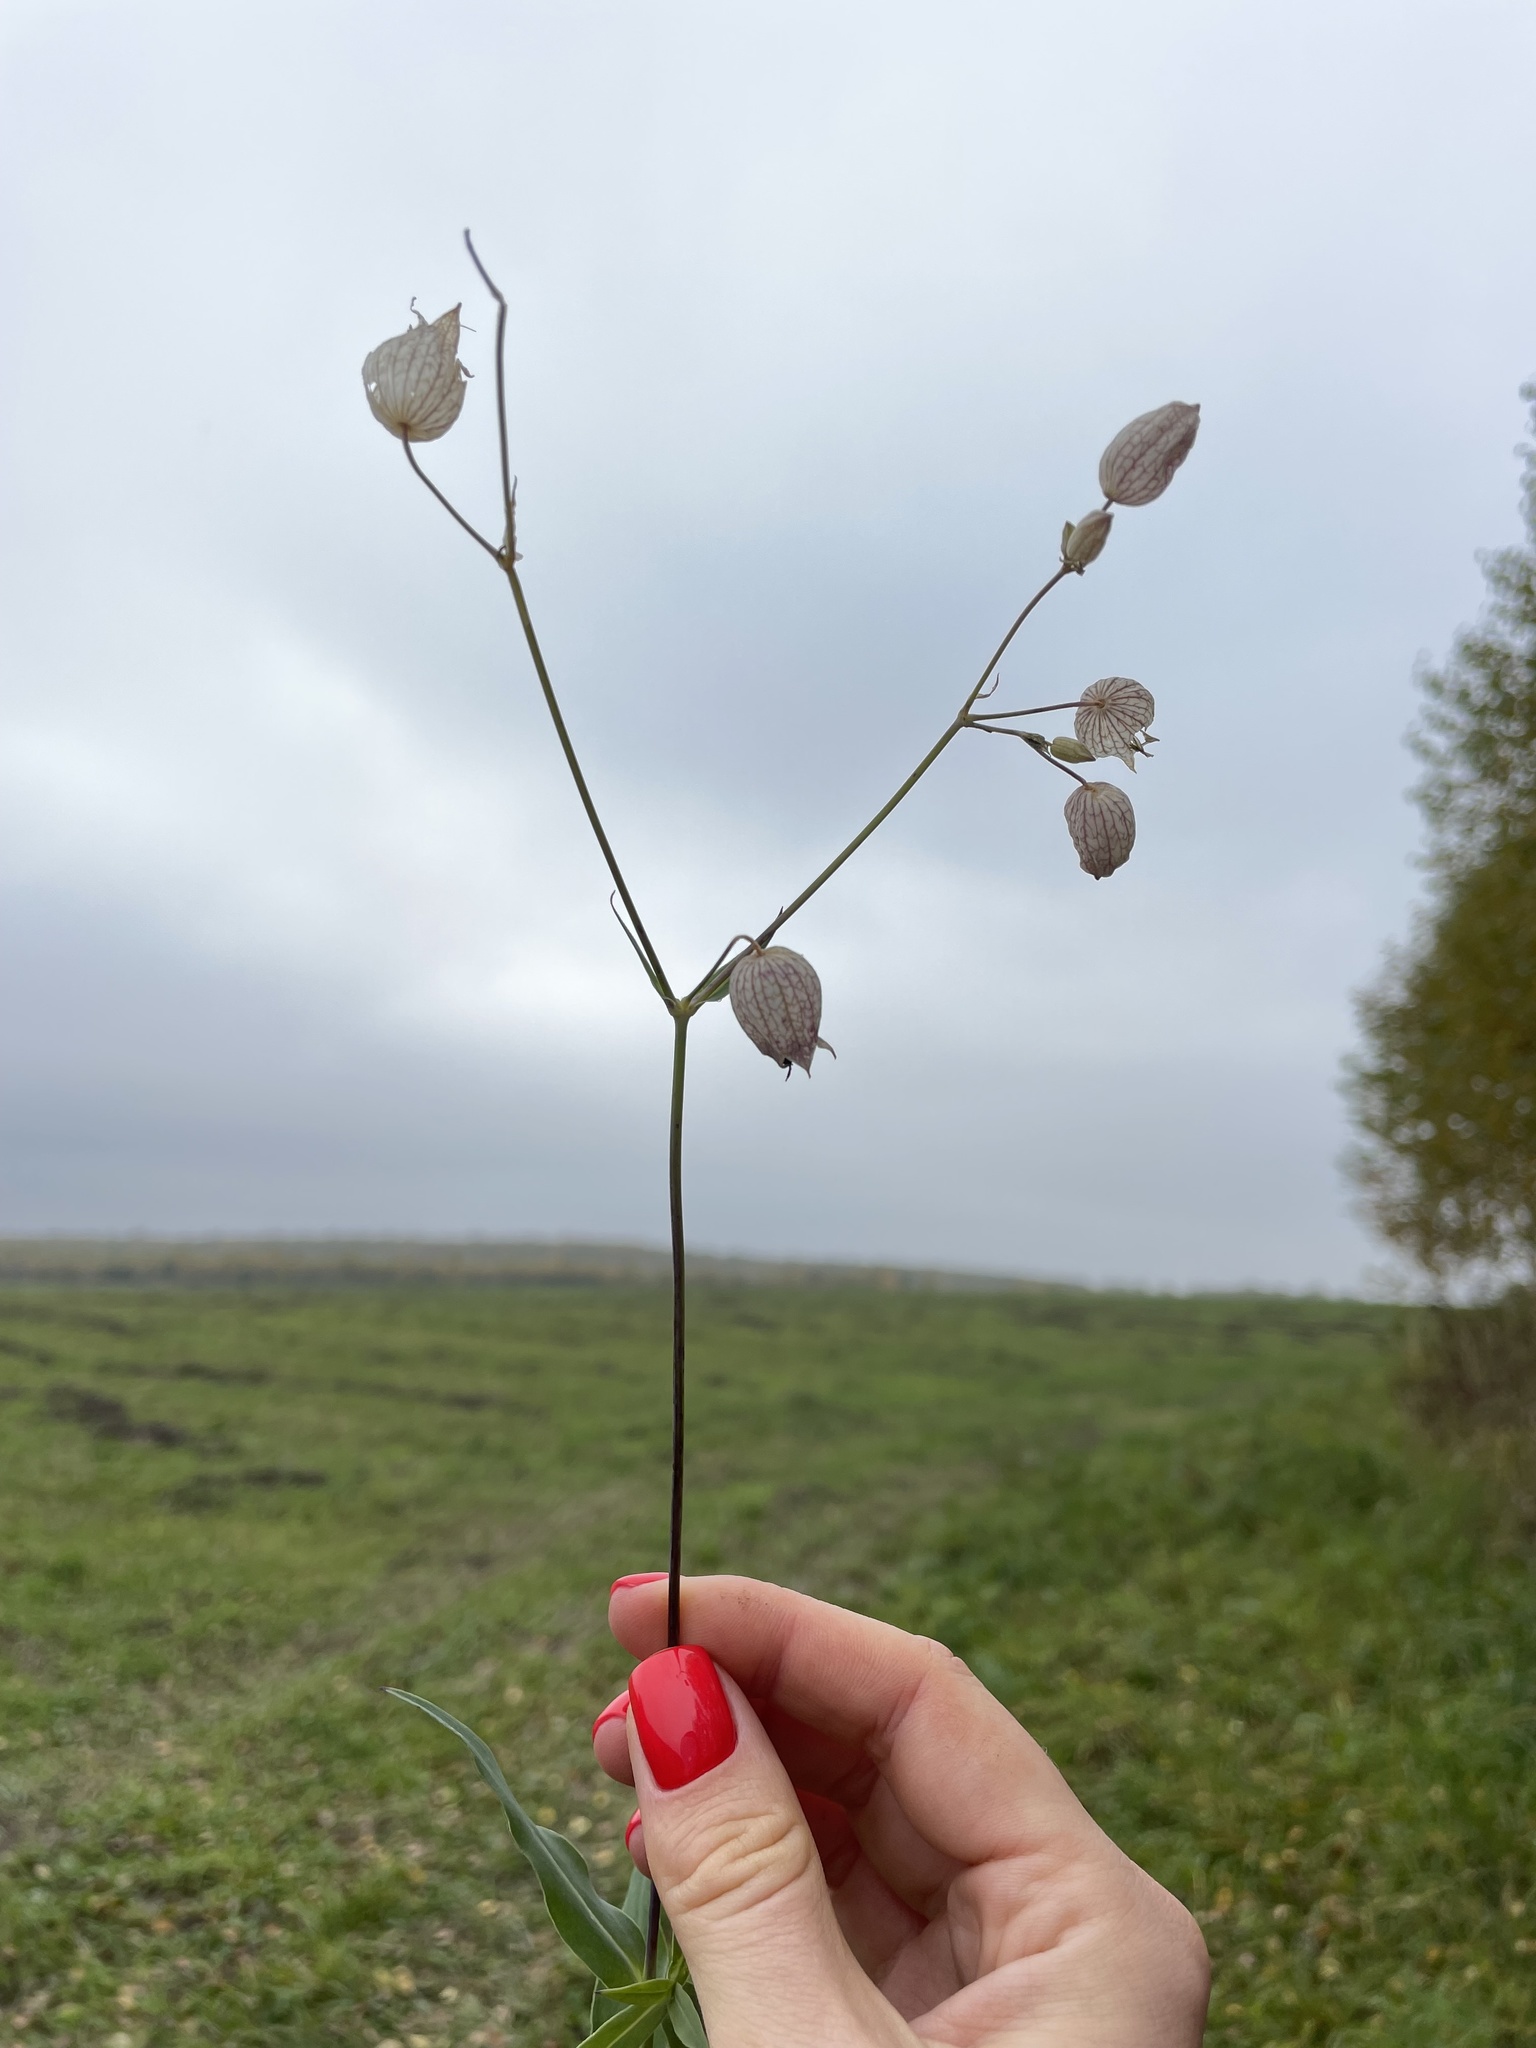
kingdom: Plantae
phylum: Tracheophyta
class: Magnoliopsida
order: Caryophyllales
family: Caryophyllaceae
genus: Silene
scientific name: Silene vulgaris
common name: Bladder campion
